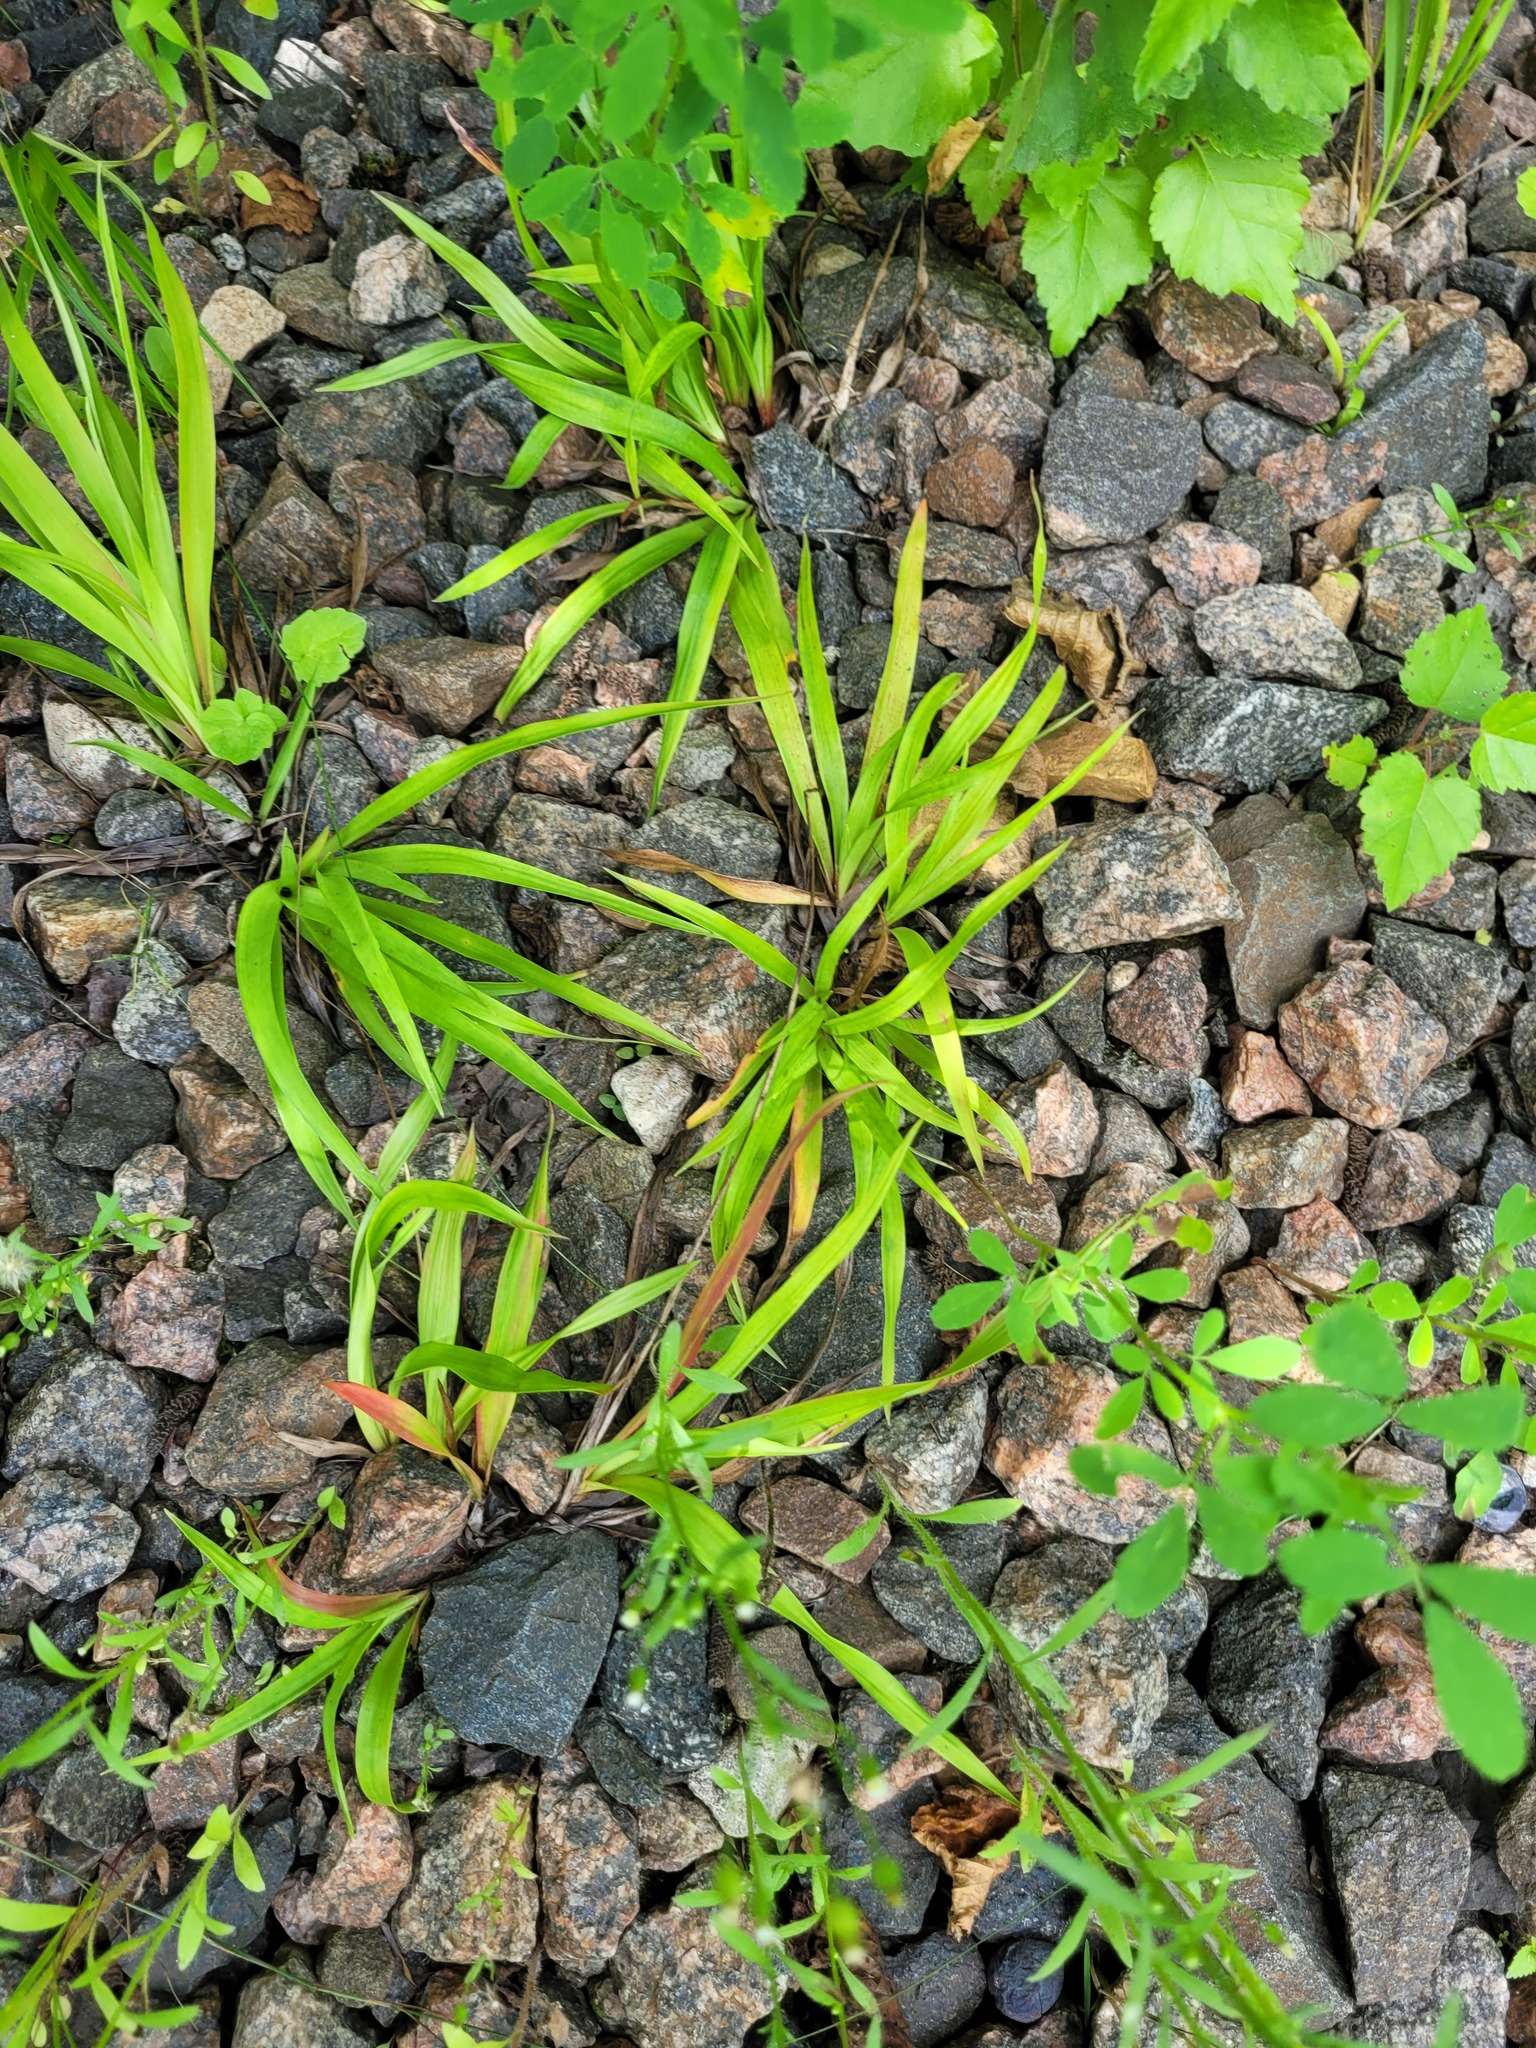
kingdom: Plantae
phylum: Tracheophyta
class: Liliopsida
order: Poales
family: Juncaceae
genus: Luzula
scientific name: Luzula pilosa
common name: Hairy wood-rush
